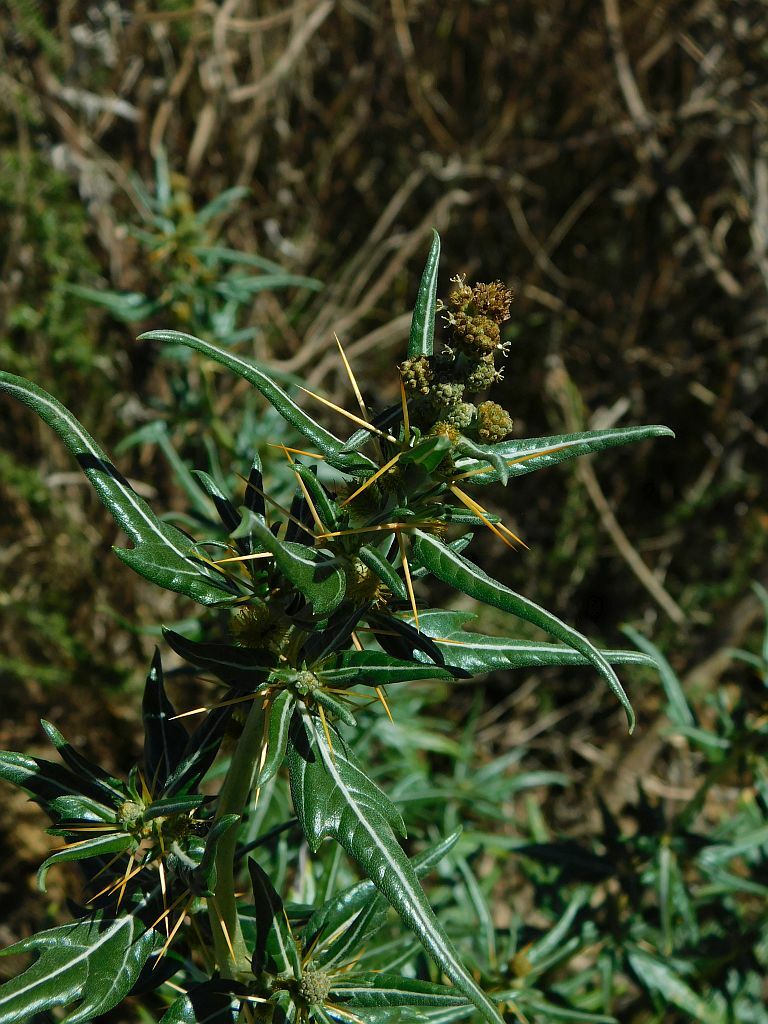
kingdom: Plantae
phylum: Tracheophyta
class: Magnoliopsida
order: Asterales
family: Asteraceae
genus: Xanthium
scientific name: Xanthium spinosum
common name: Spiny cocklebur
